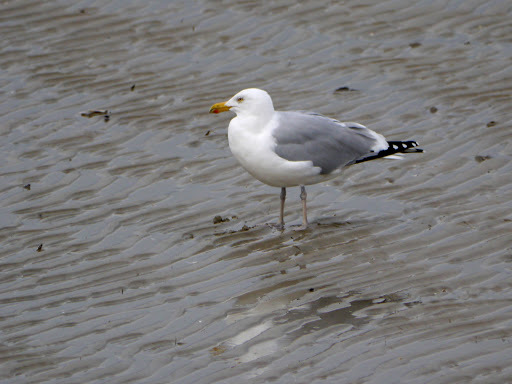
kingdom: Animalia
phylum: Chordata
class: Aves
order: Charadriiformes
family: Laridae
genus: Larus
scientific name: Larus argentatus
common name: Herring gull
